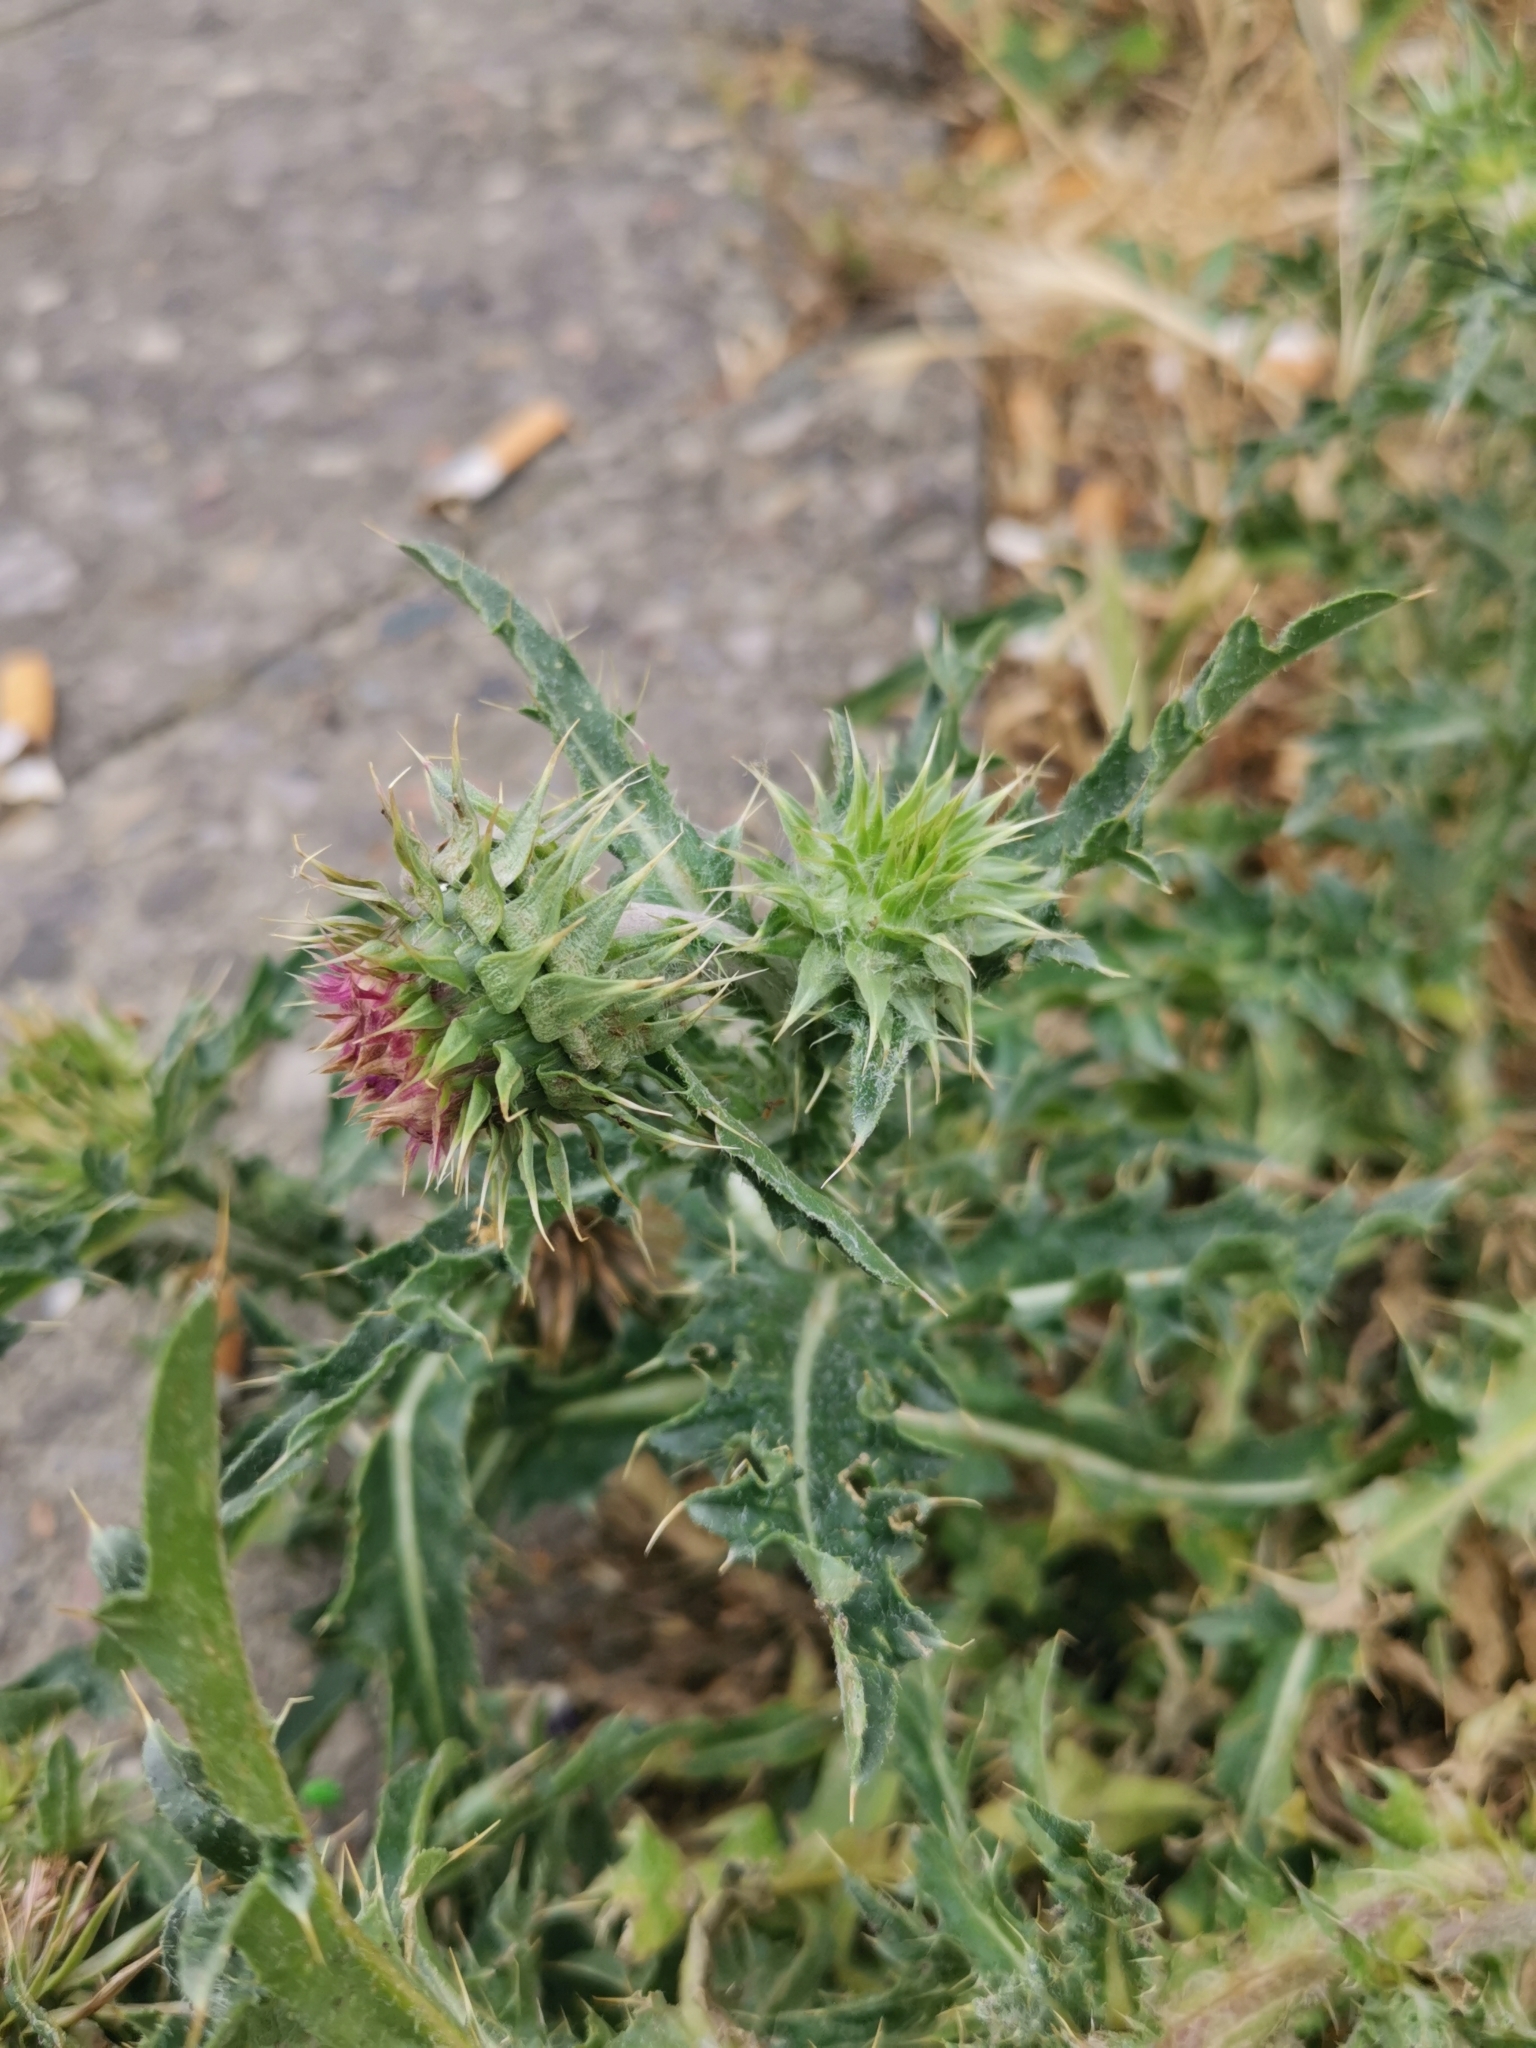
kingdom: Plantae
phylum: Tracheophyta
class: Magnoliopsida
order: Asterales
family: Asteraceae
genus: Carduus
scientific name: Carduus nutans
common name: Musk thistle
